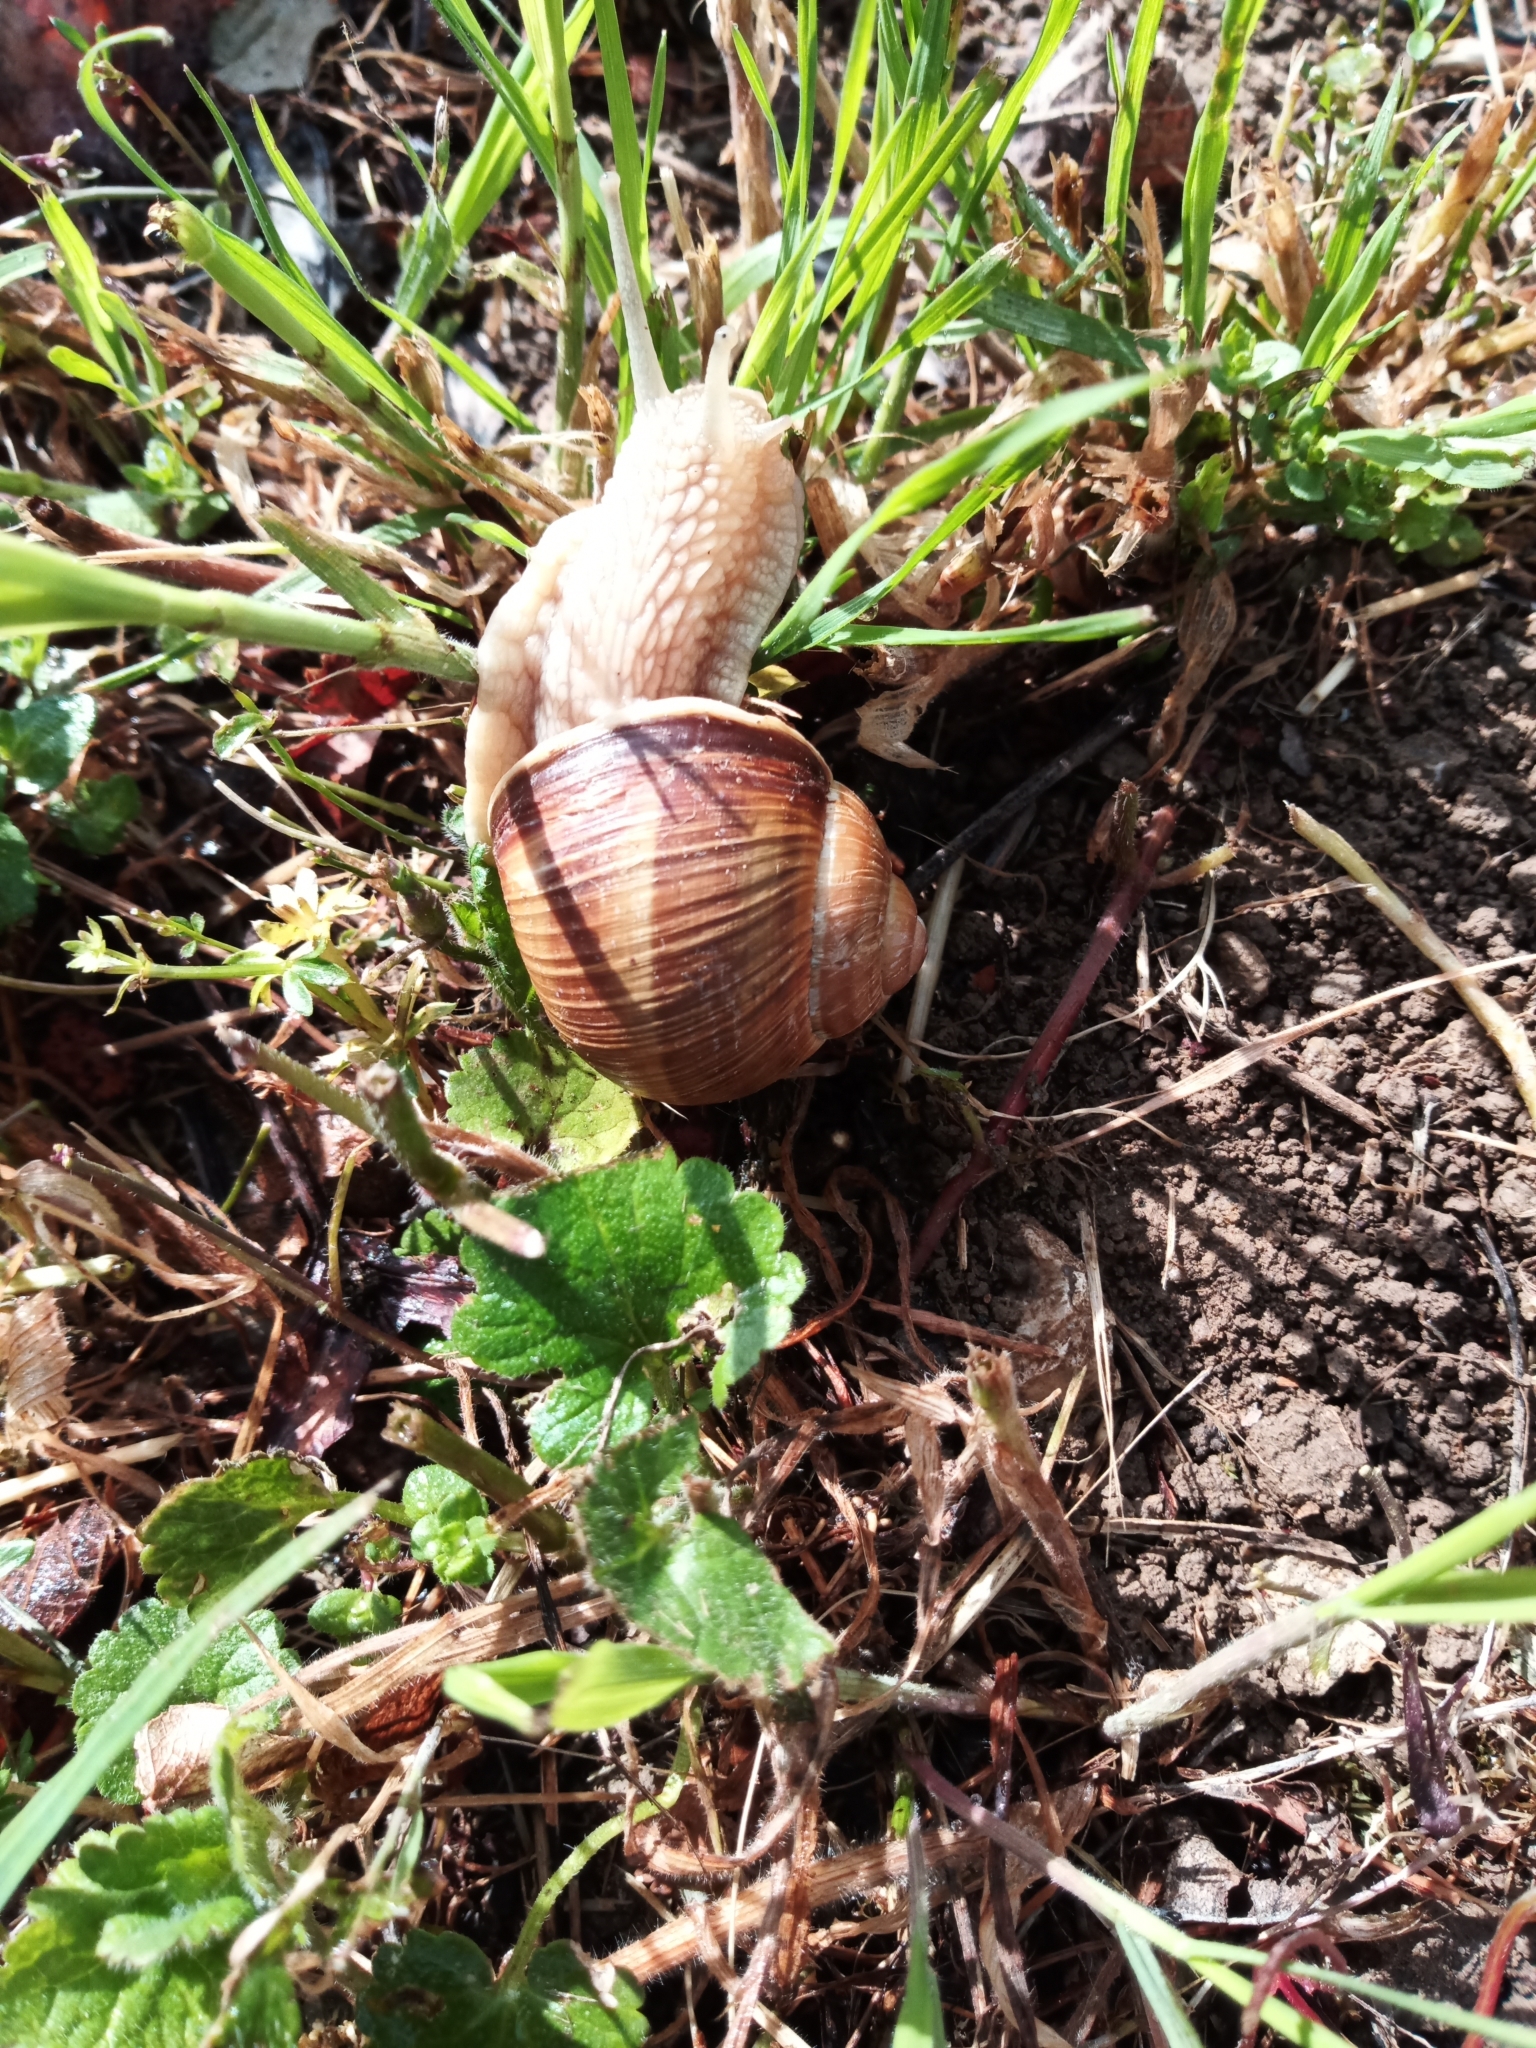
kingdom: Animalia
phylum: Mollusca
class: Gastropoda
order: Stylommatophora
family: Helicidae
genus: Helix
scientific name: Helix pomatia
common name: Roman snail
